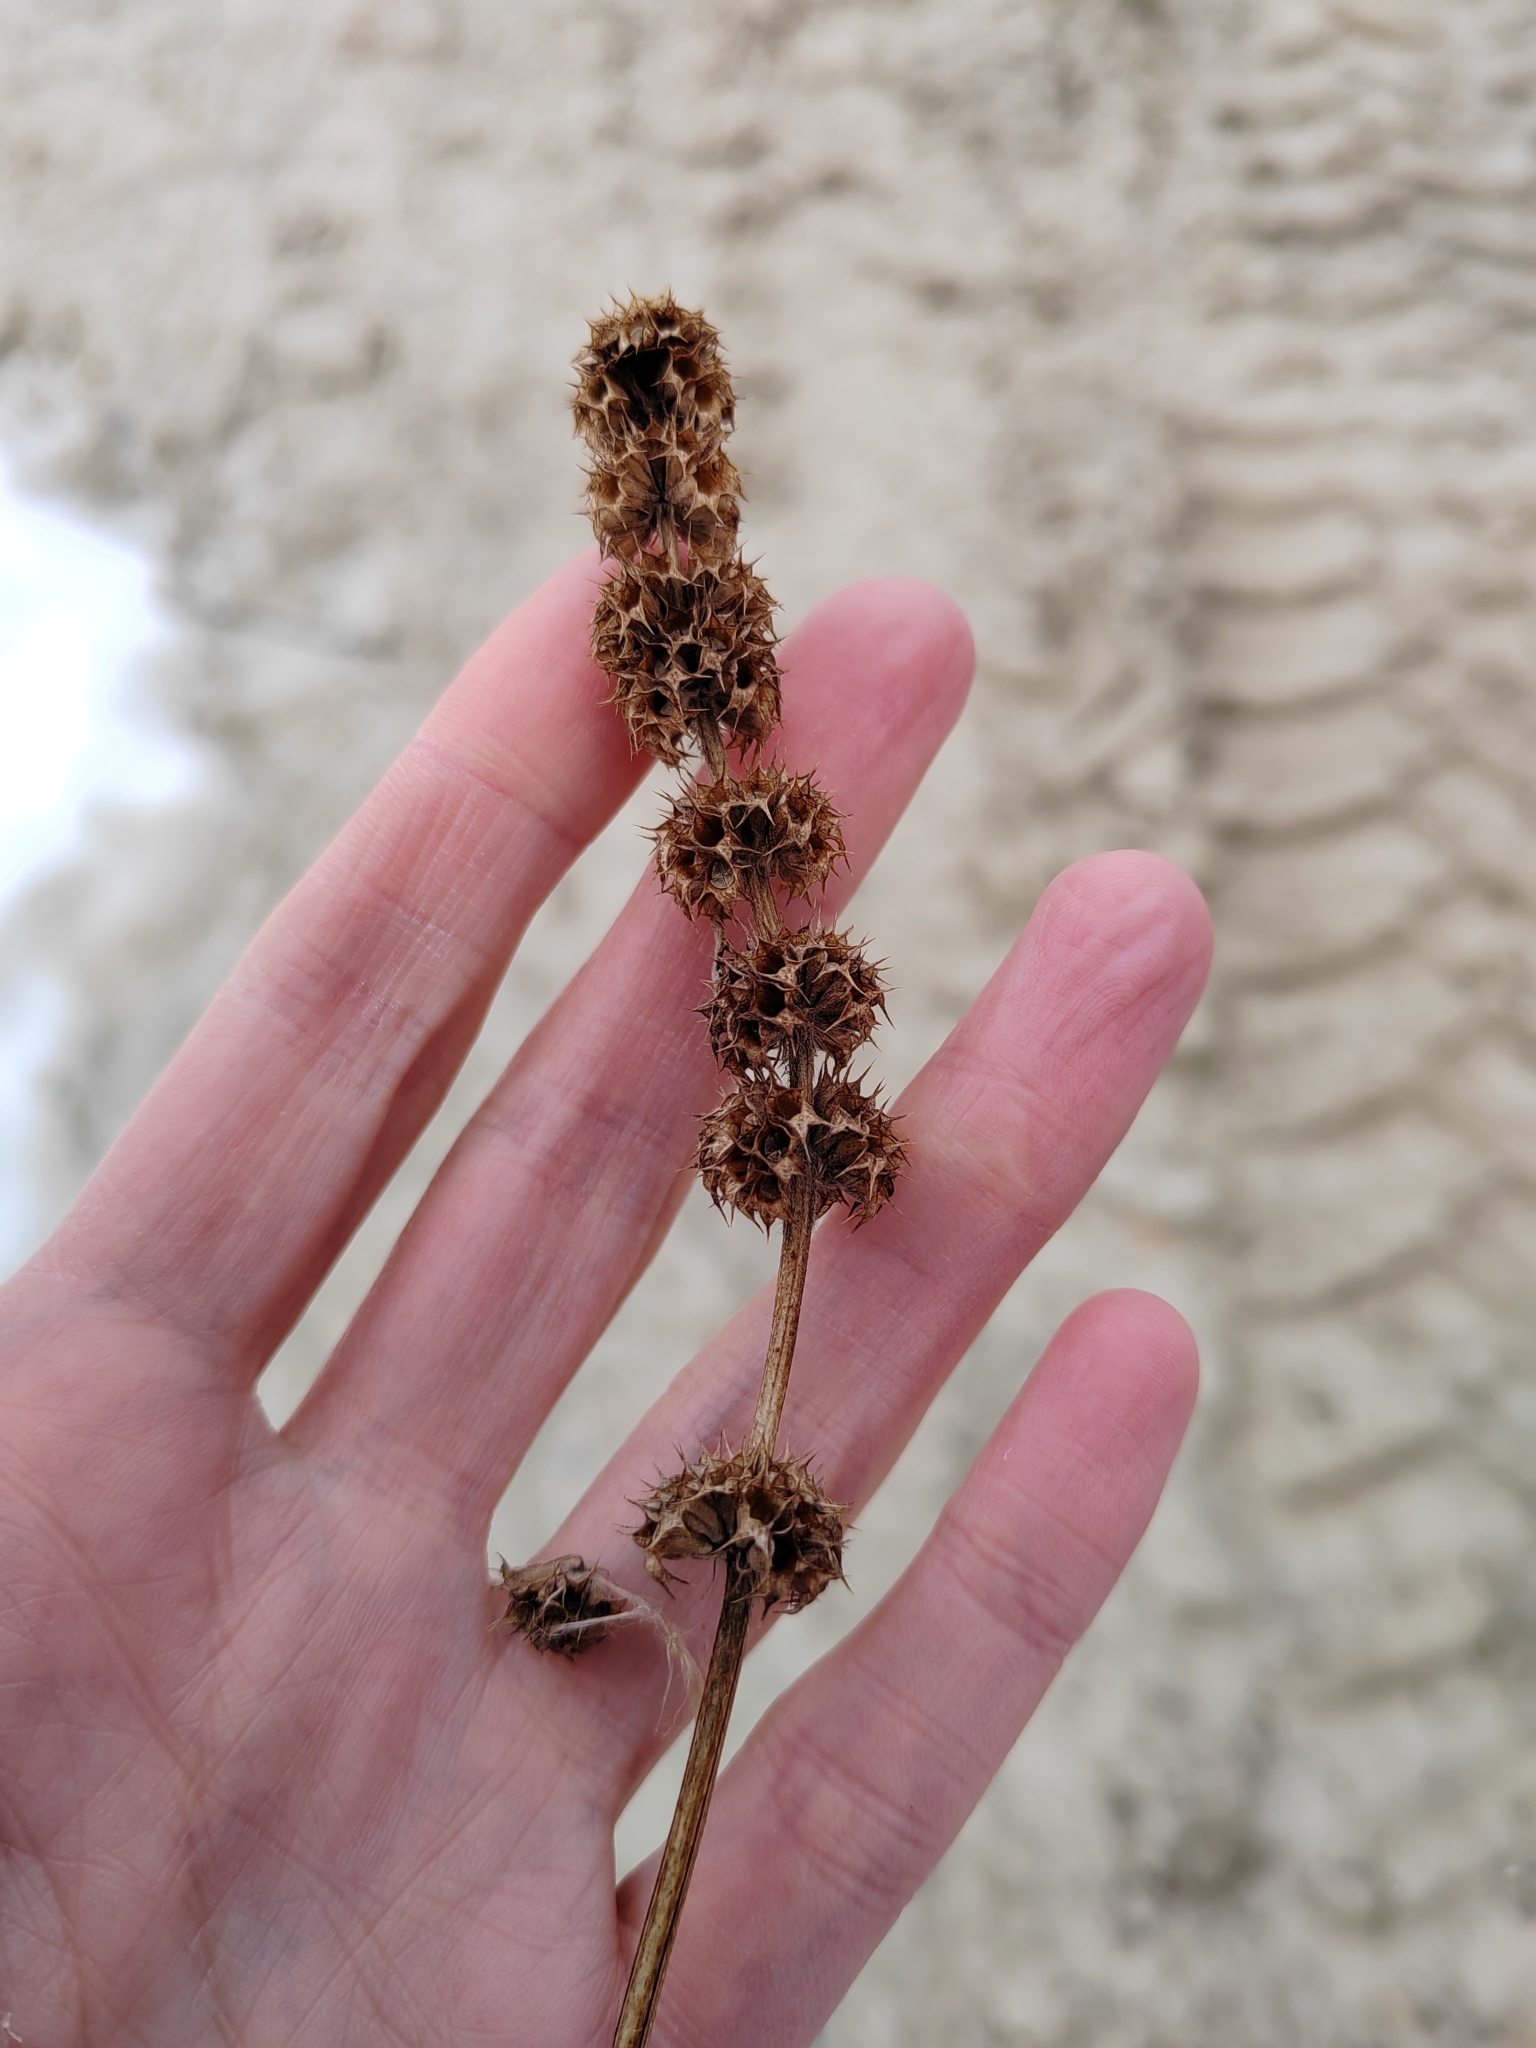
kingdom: Plantae
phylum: Tracheophyta
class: Magnoliopsida
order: Lamiales
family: Lamiaceae
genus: Leonurus
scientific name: Leonurus quinquelobatus
